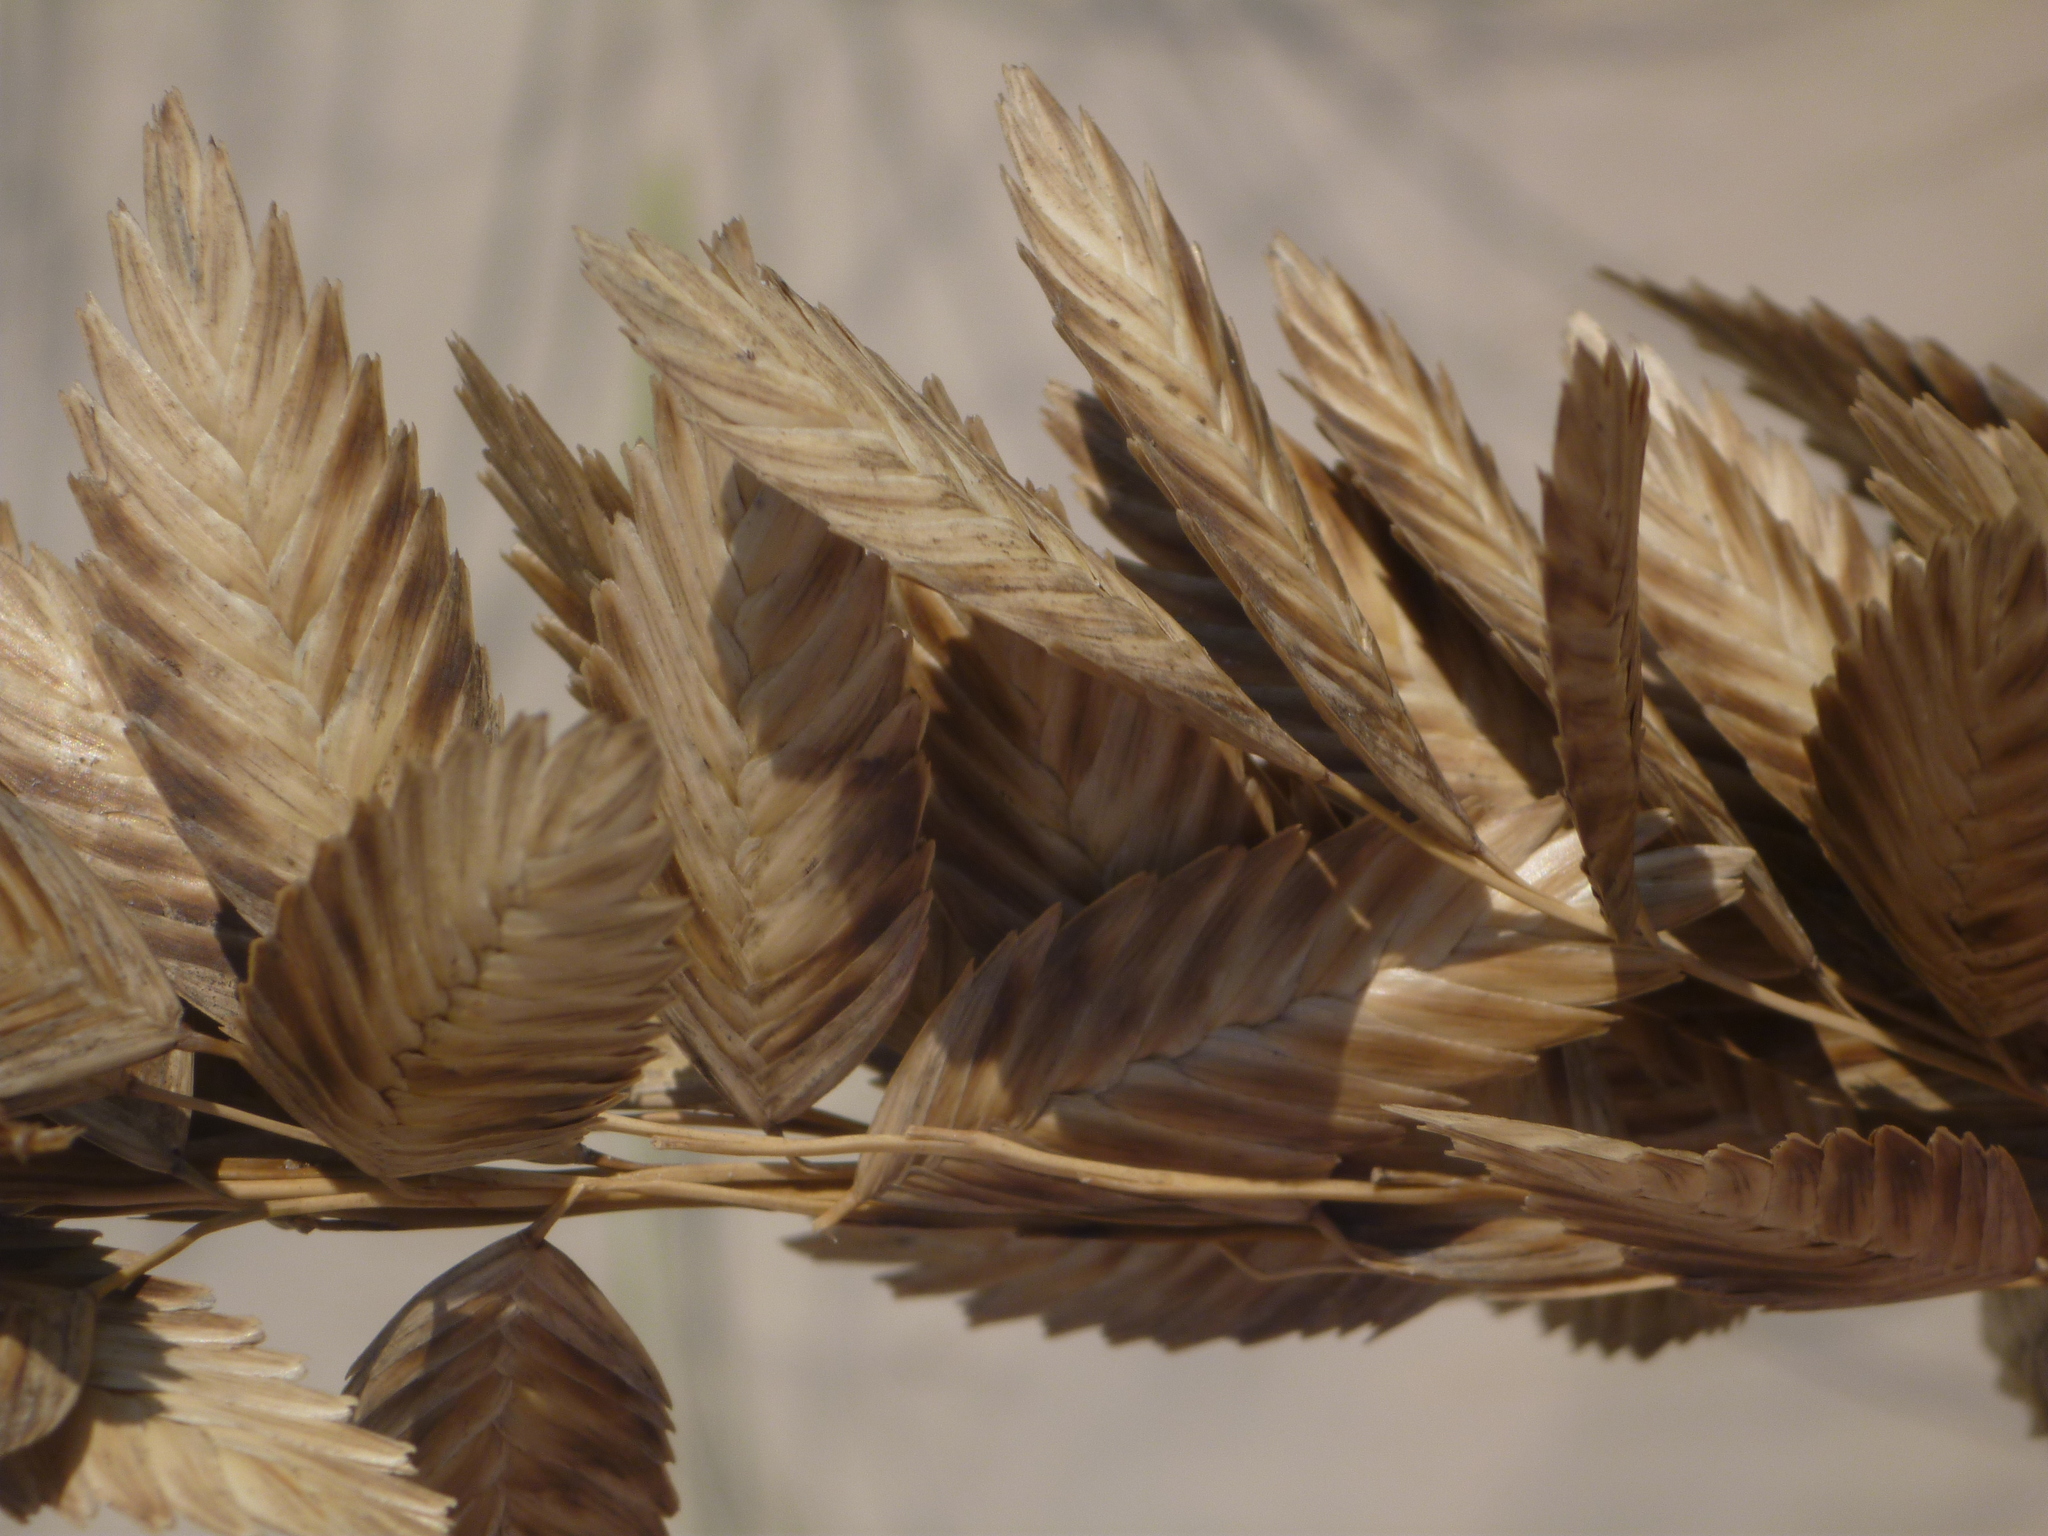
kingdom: Plantae
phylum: Tracheophyta
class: Liliopsida
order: Poales
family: Poaceae
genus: Uniola
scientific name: Uniola paniculata
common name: Seaside-oats
